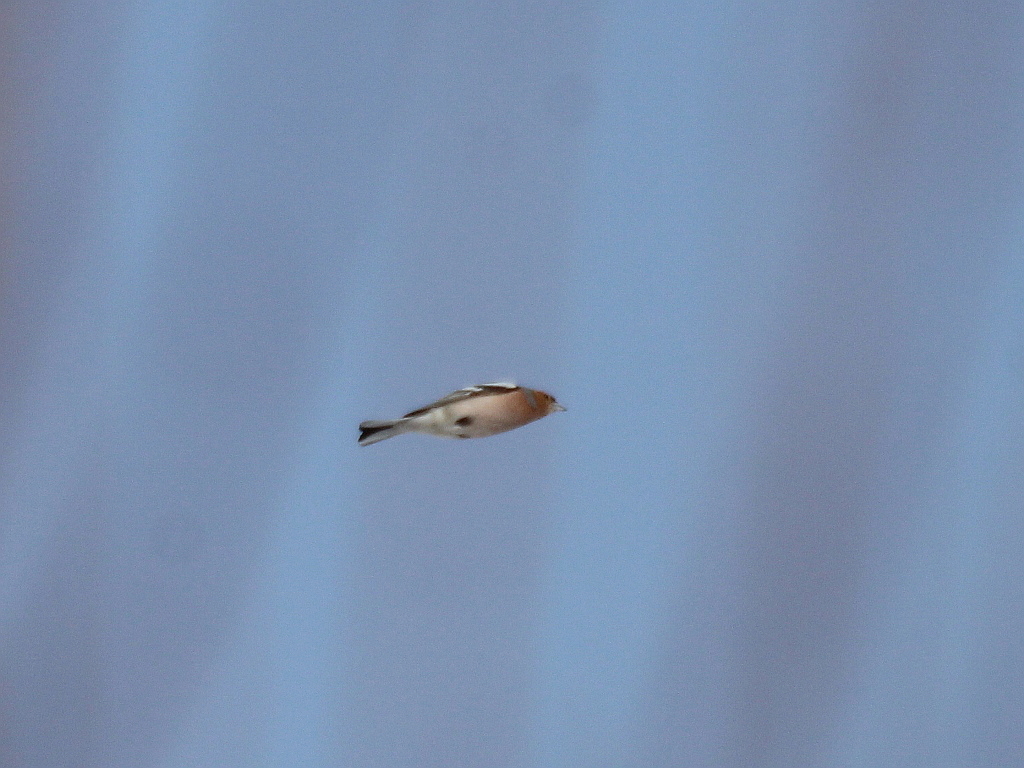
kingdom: Animalia
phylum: Chordata
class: Aves
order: Passeriformes
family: Fringillidae
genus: Fringilla
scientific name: Fringilla coelebs
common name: Common chaffinch
